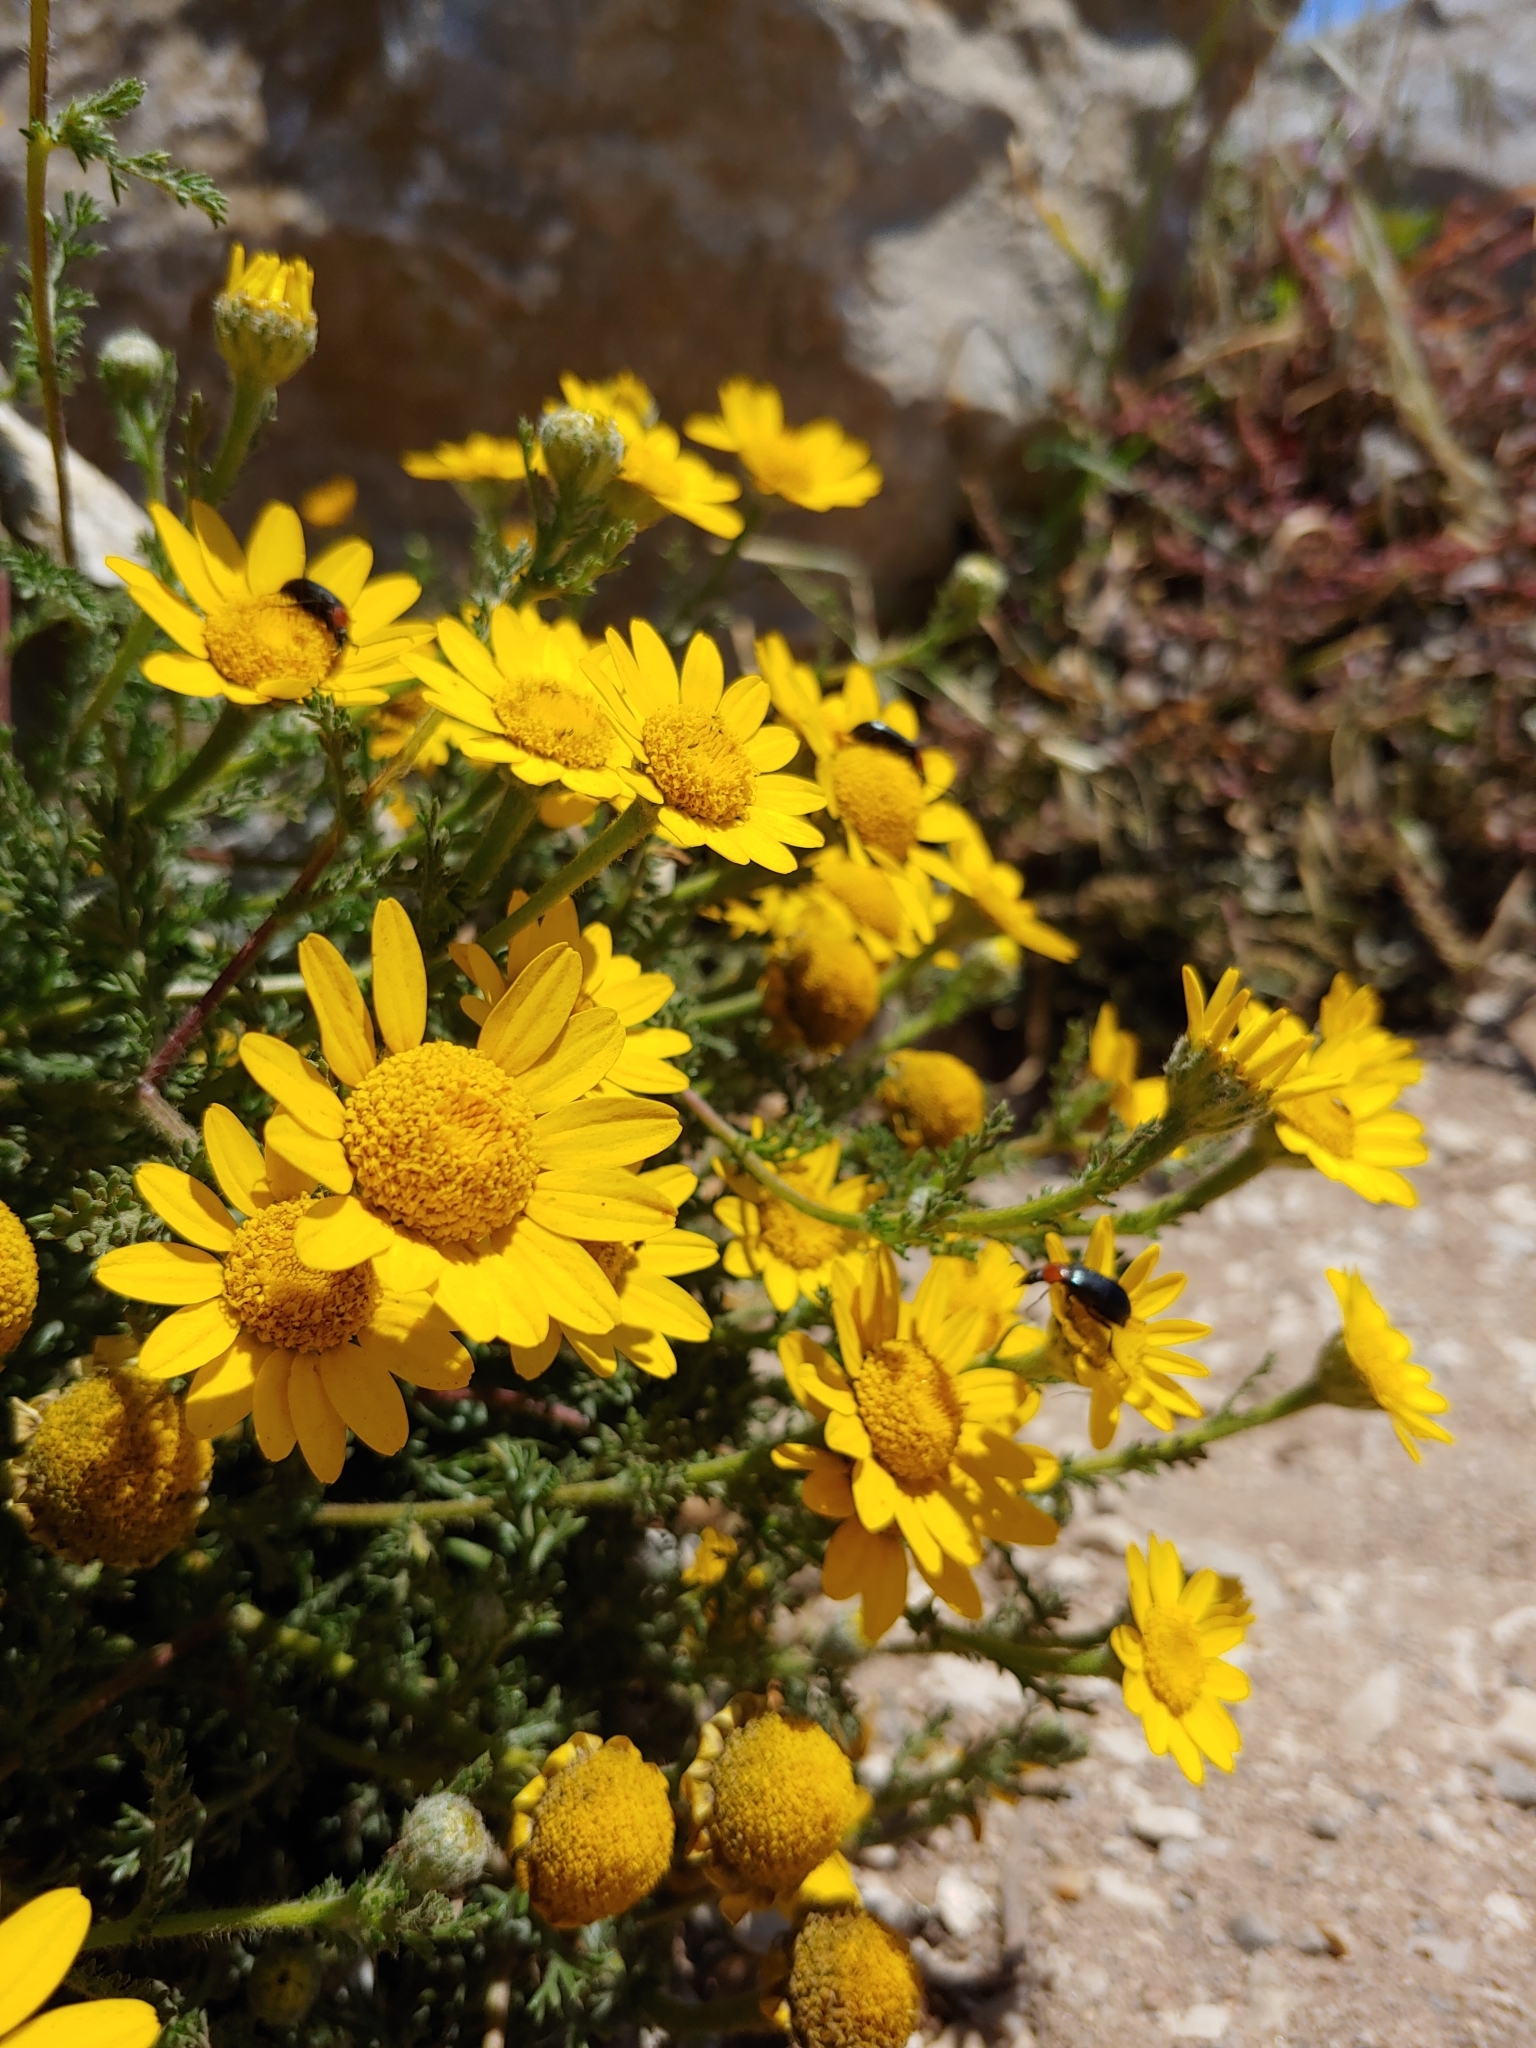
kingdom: Plantae
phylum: Tracheophyta
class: Magnoliopsida
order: Asterales
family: Asteraceae
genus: Anacyclus
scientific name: Anacyclus radiatus
